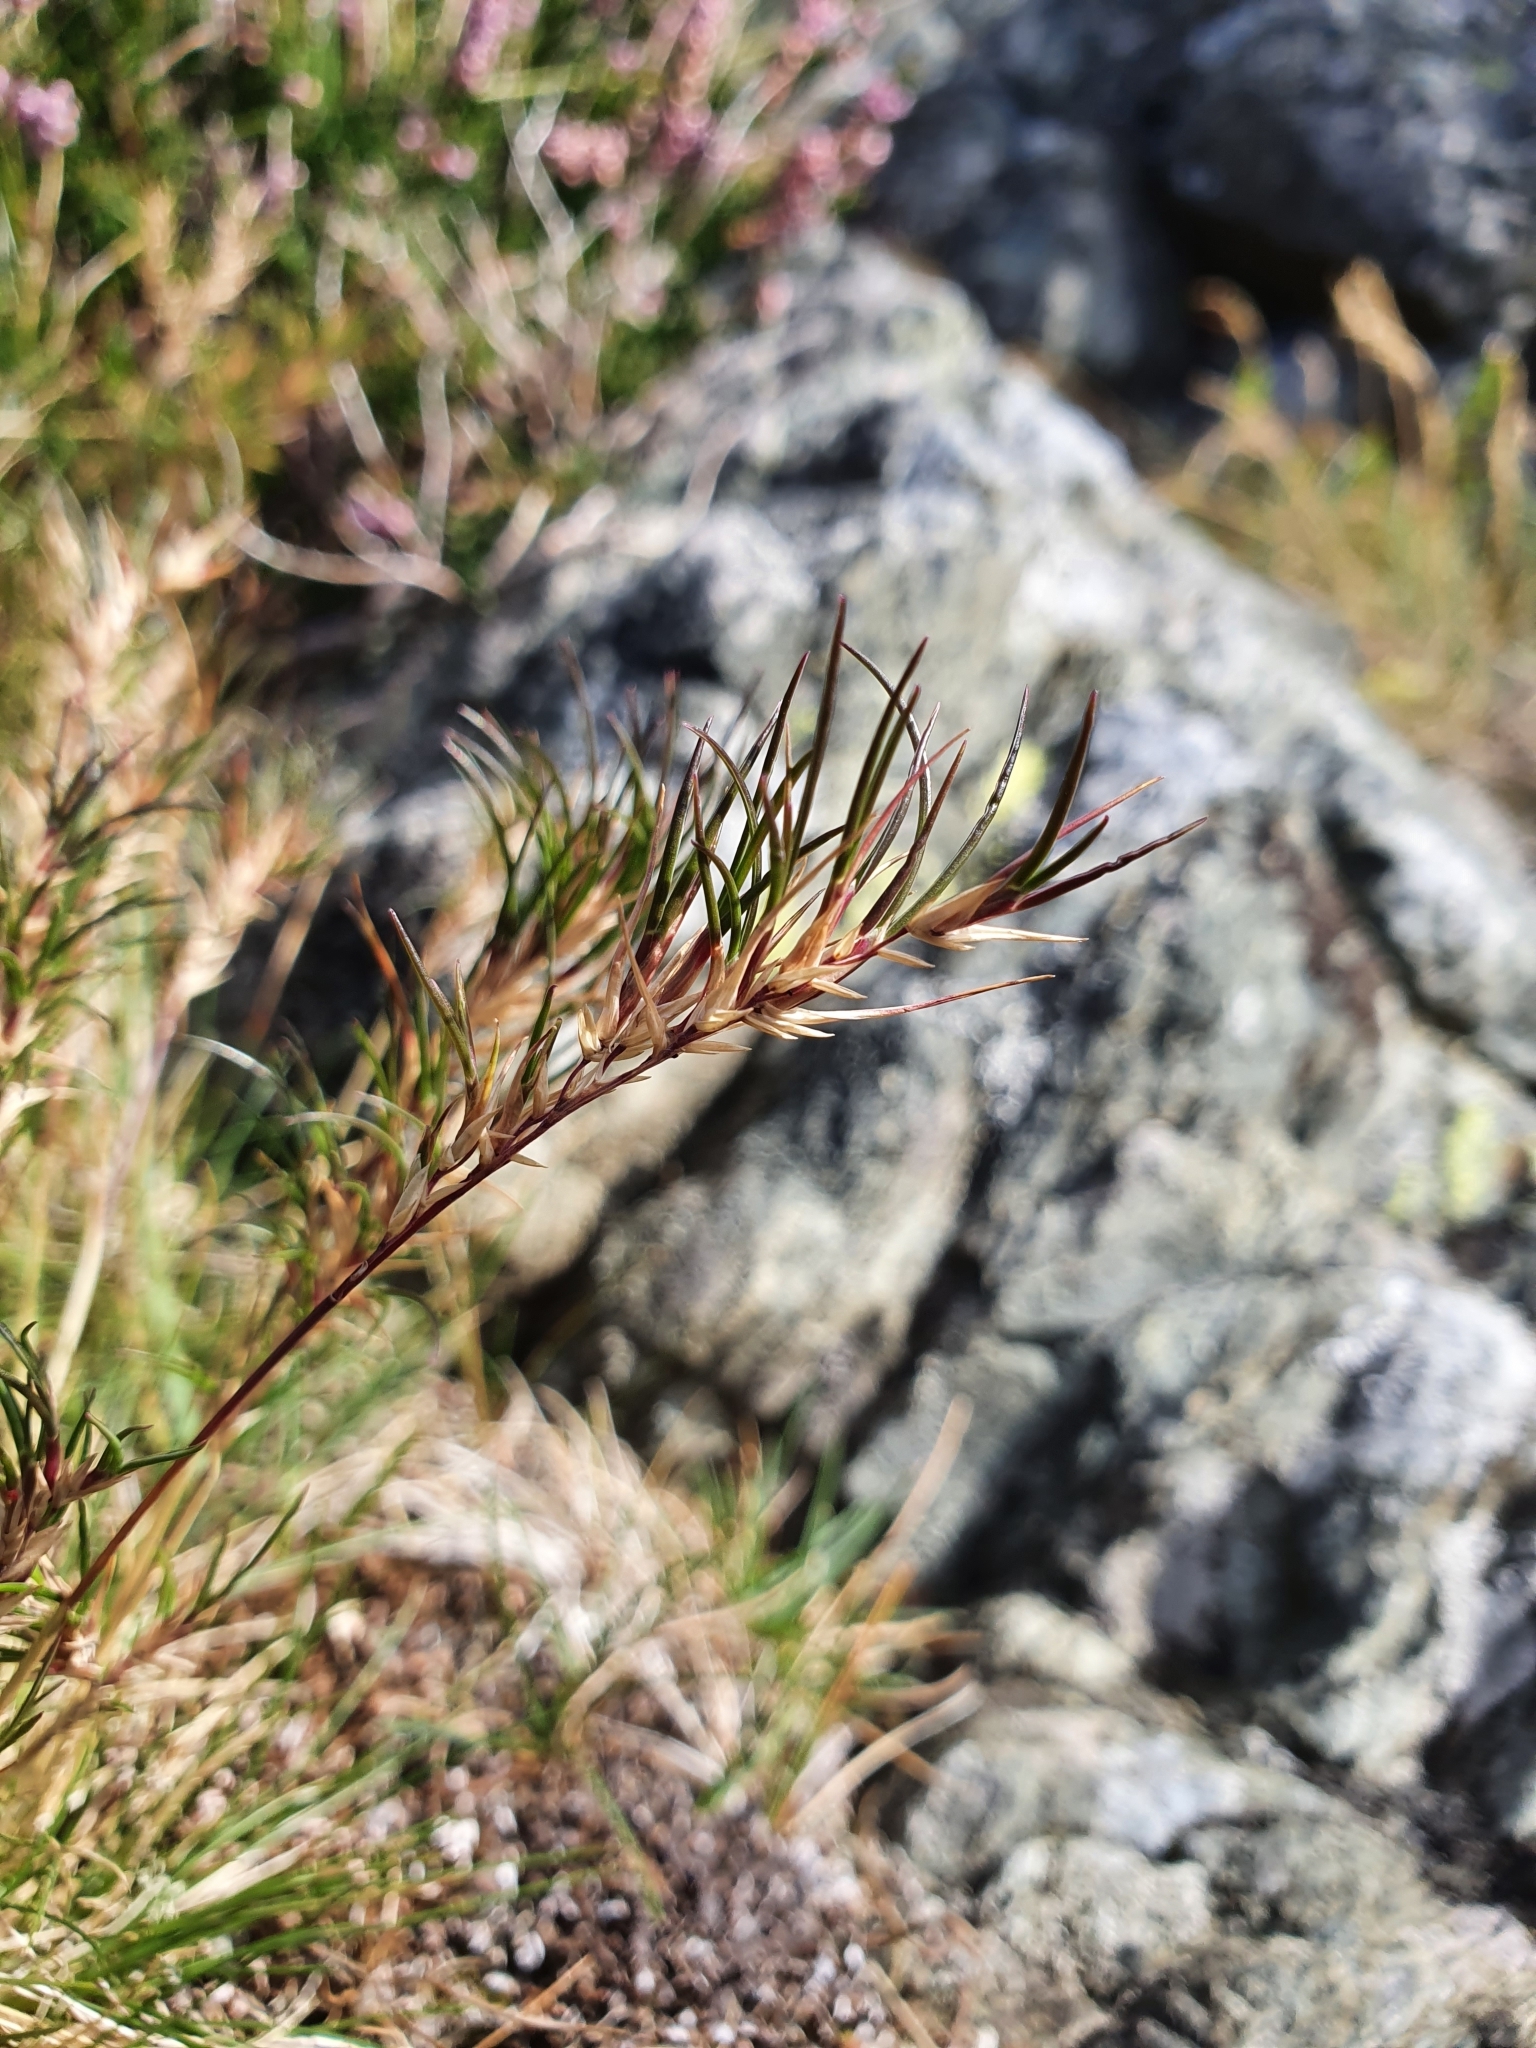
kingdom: Plantae
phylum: Tracheophyta
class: Liliopsida
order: Poales
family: Poaceae
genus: Festuca
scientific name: Festuca vivipara
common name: Viviparous sheep's-fescue
